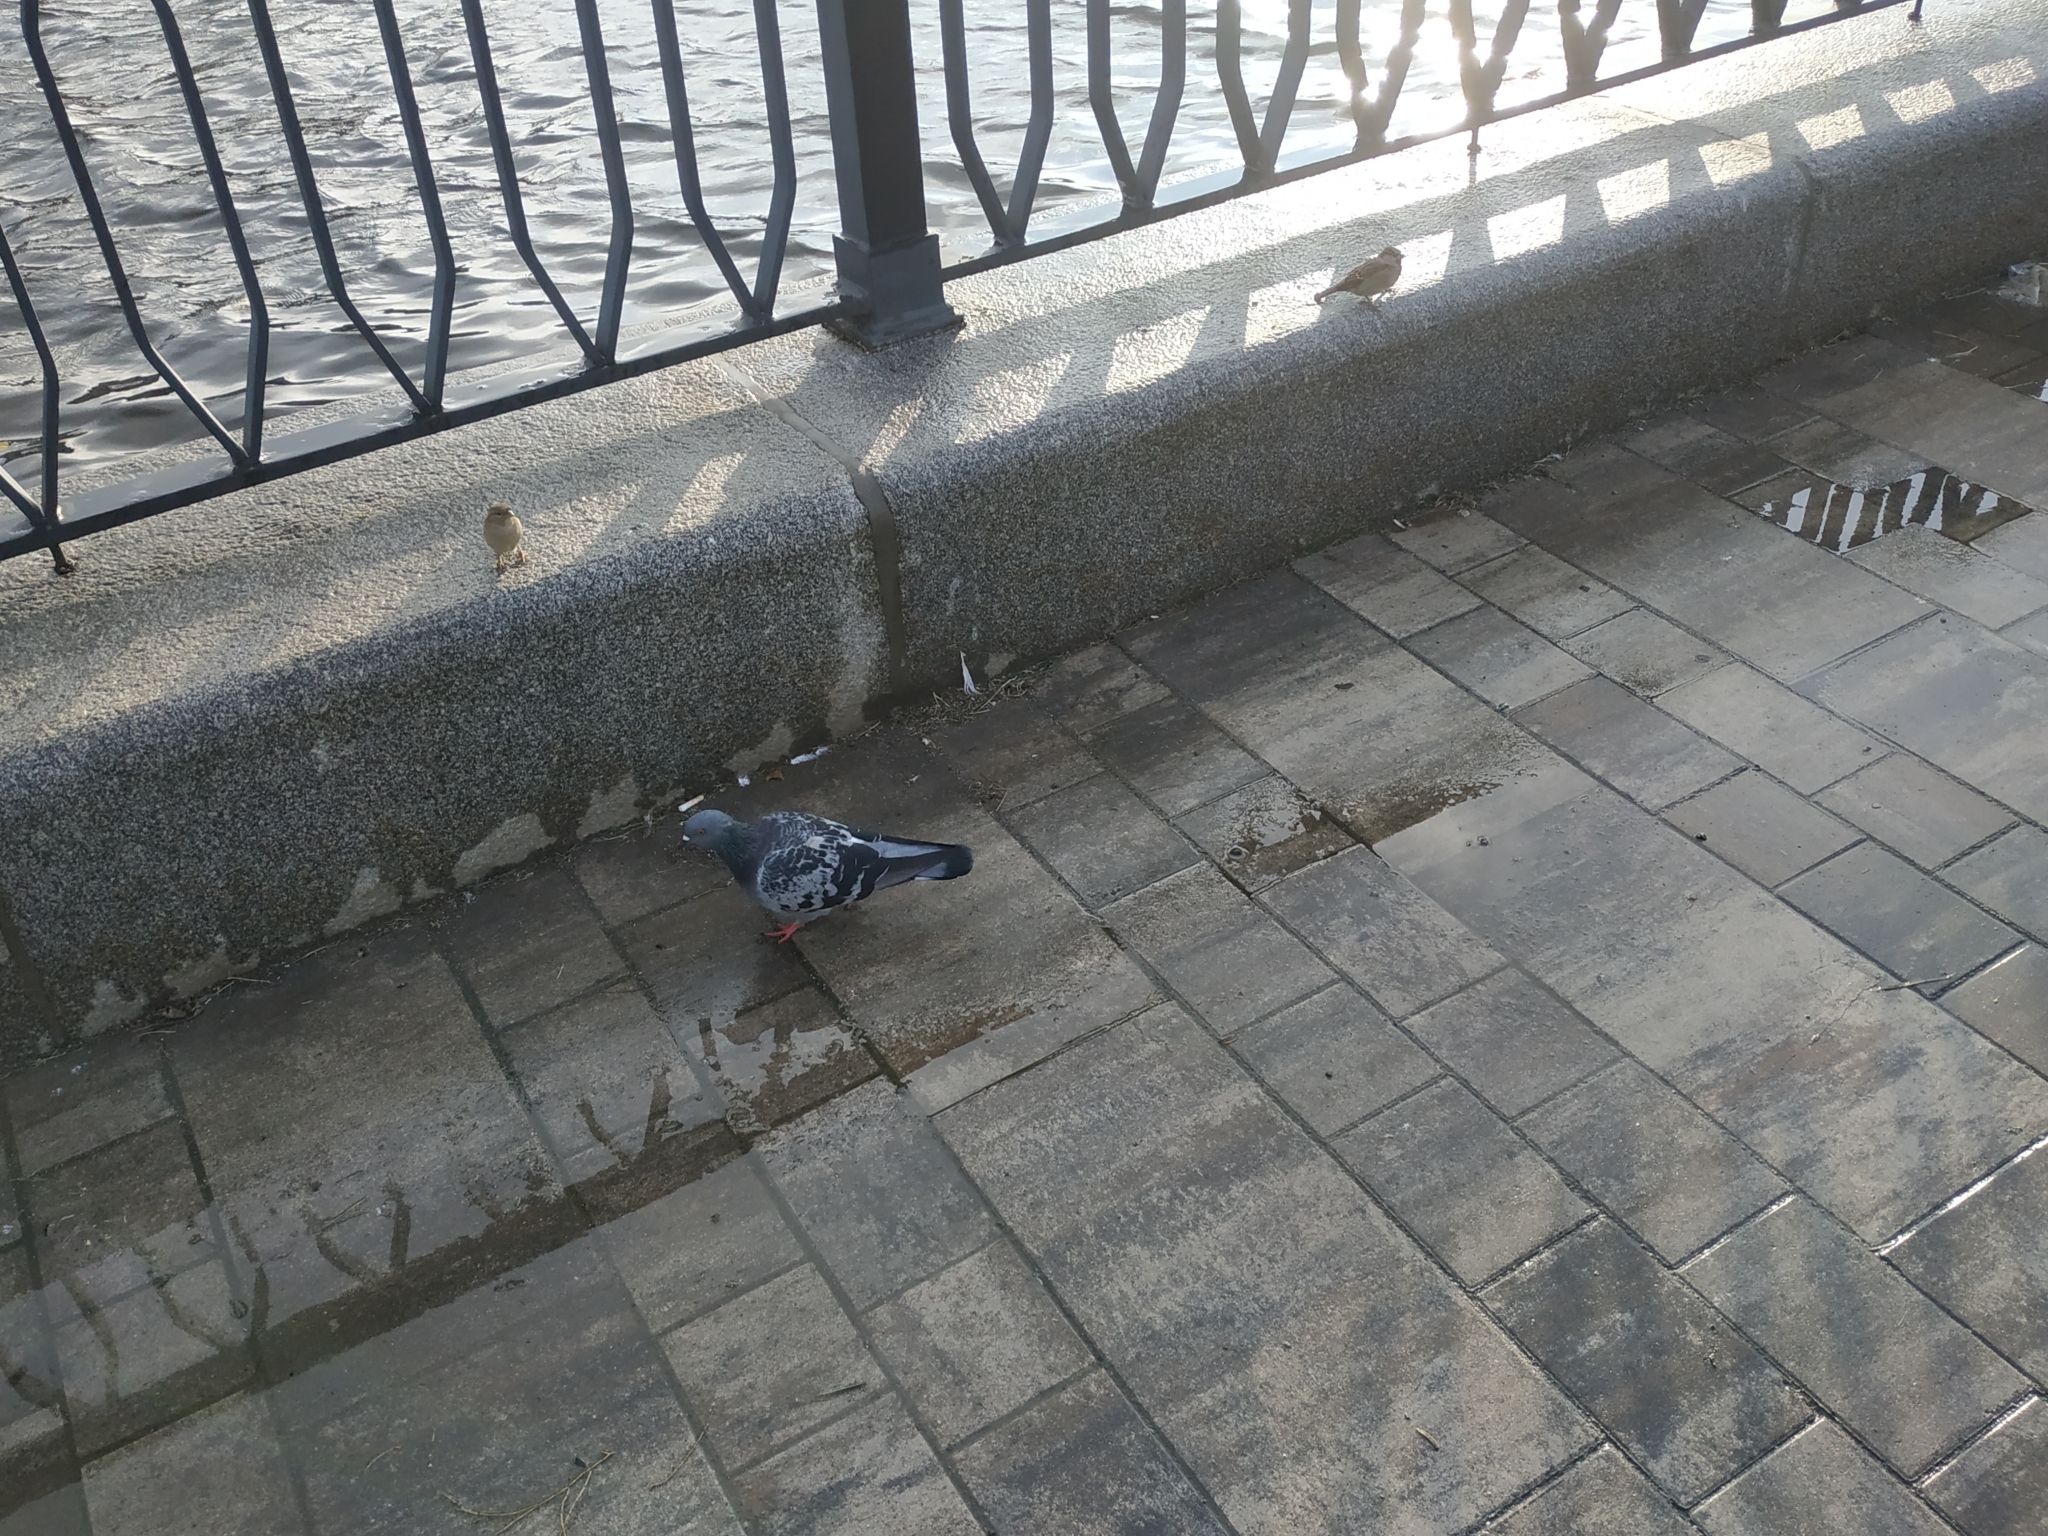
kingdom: Animalia
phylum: Chordata
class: Aves
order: Columbiformes
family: Columbidae
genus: Columba
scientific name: Columba livia
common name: Rock pigeon
